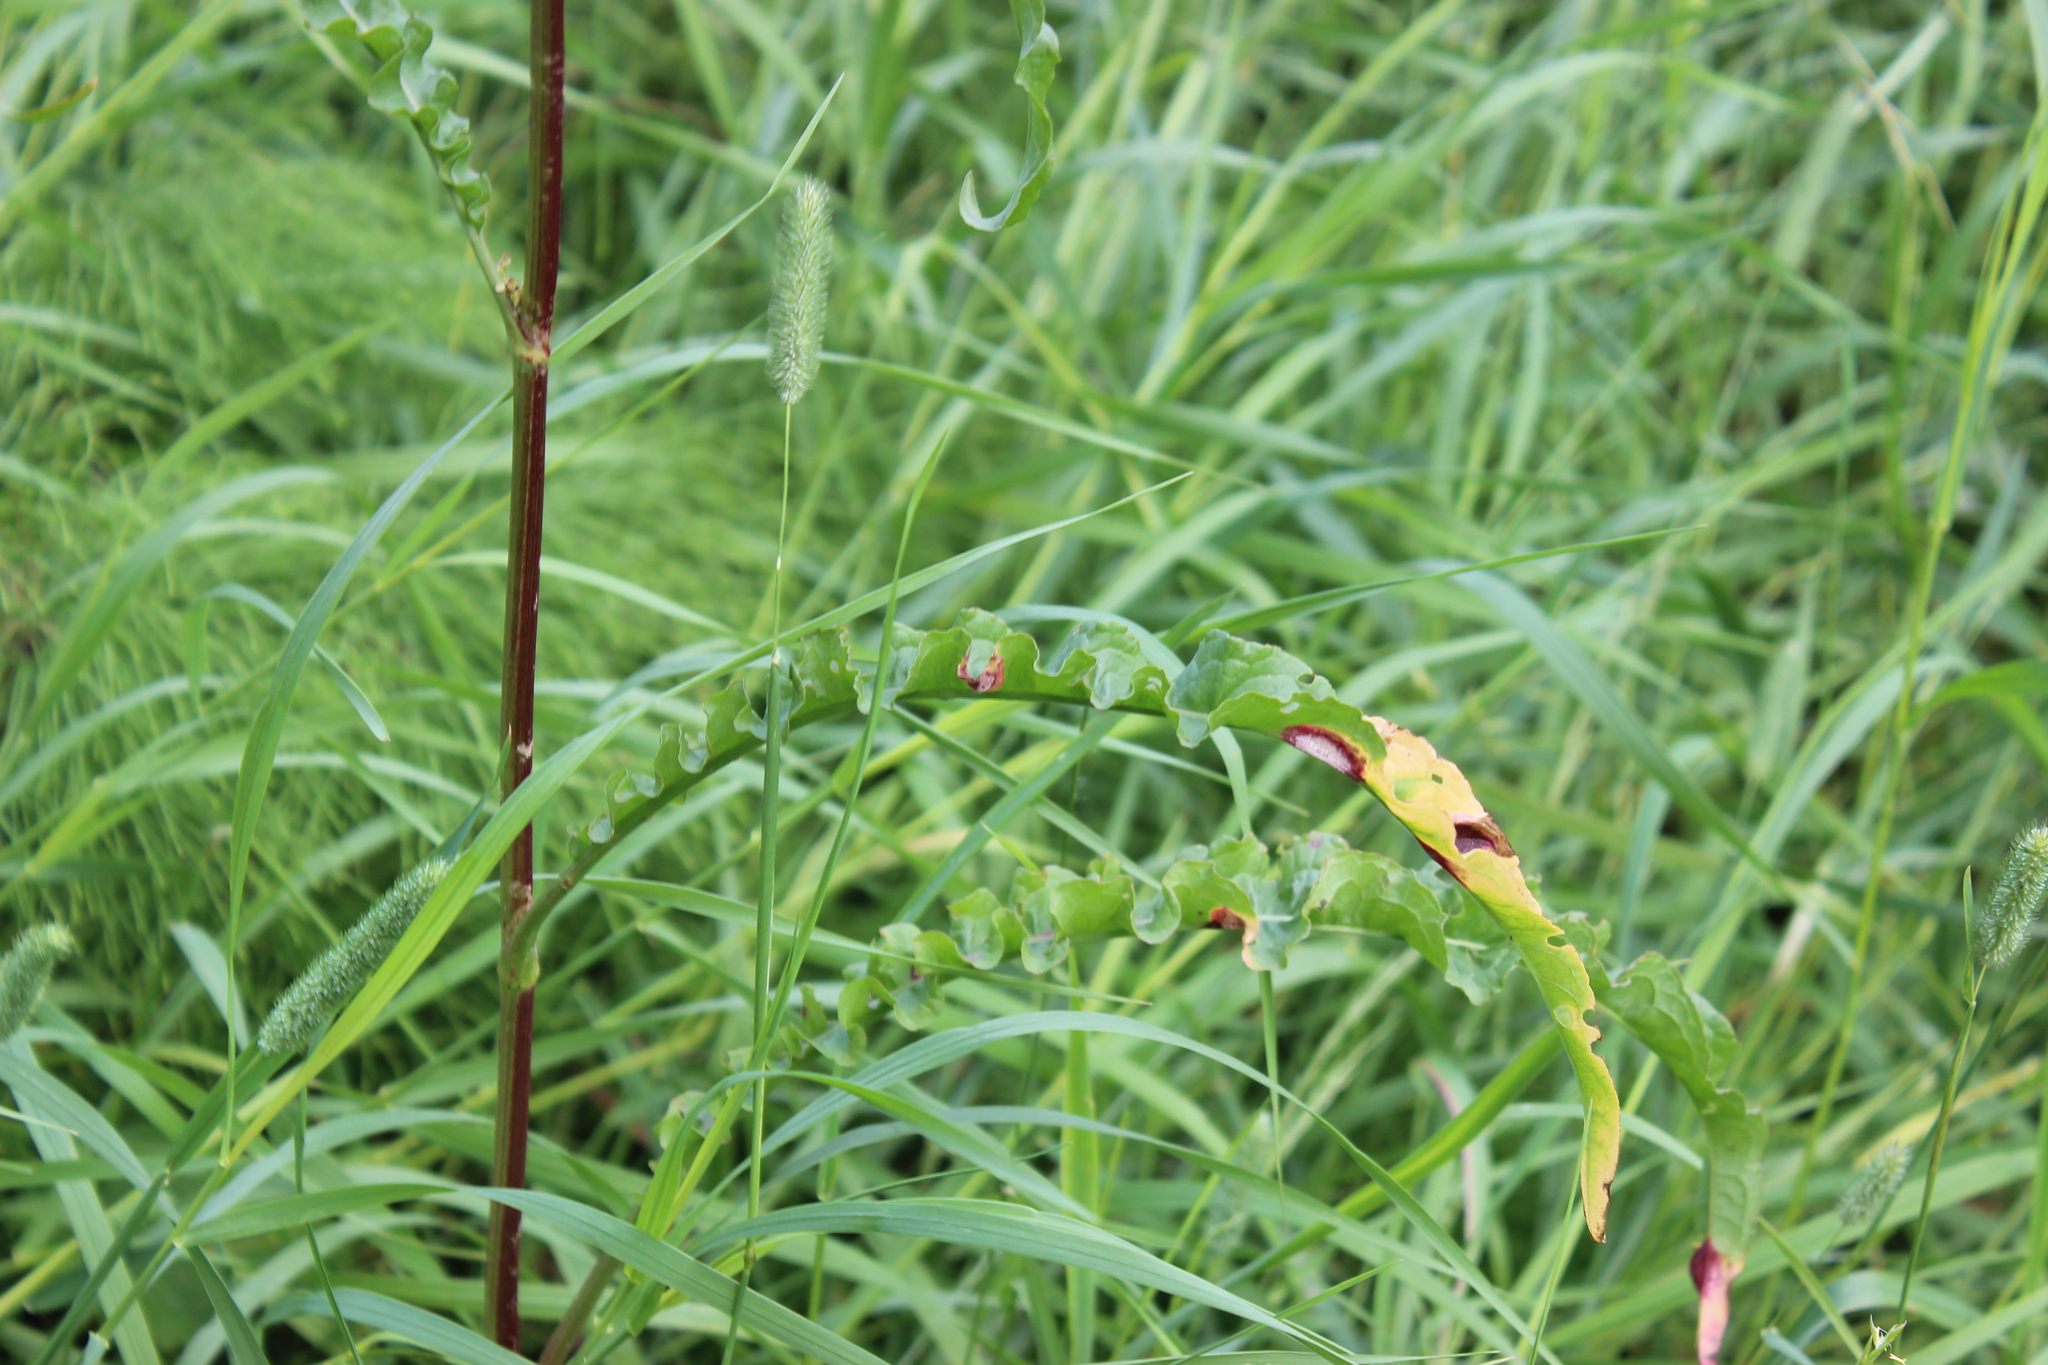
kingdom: Plantae
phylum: Tracheophyta
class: Magnoliopsida
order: Caryophyllales
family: Polygonaceae
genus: Rumex
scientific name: Rumex pseudonatronatus
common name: Field dock
